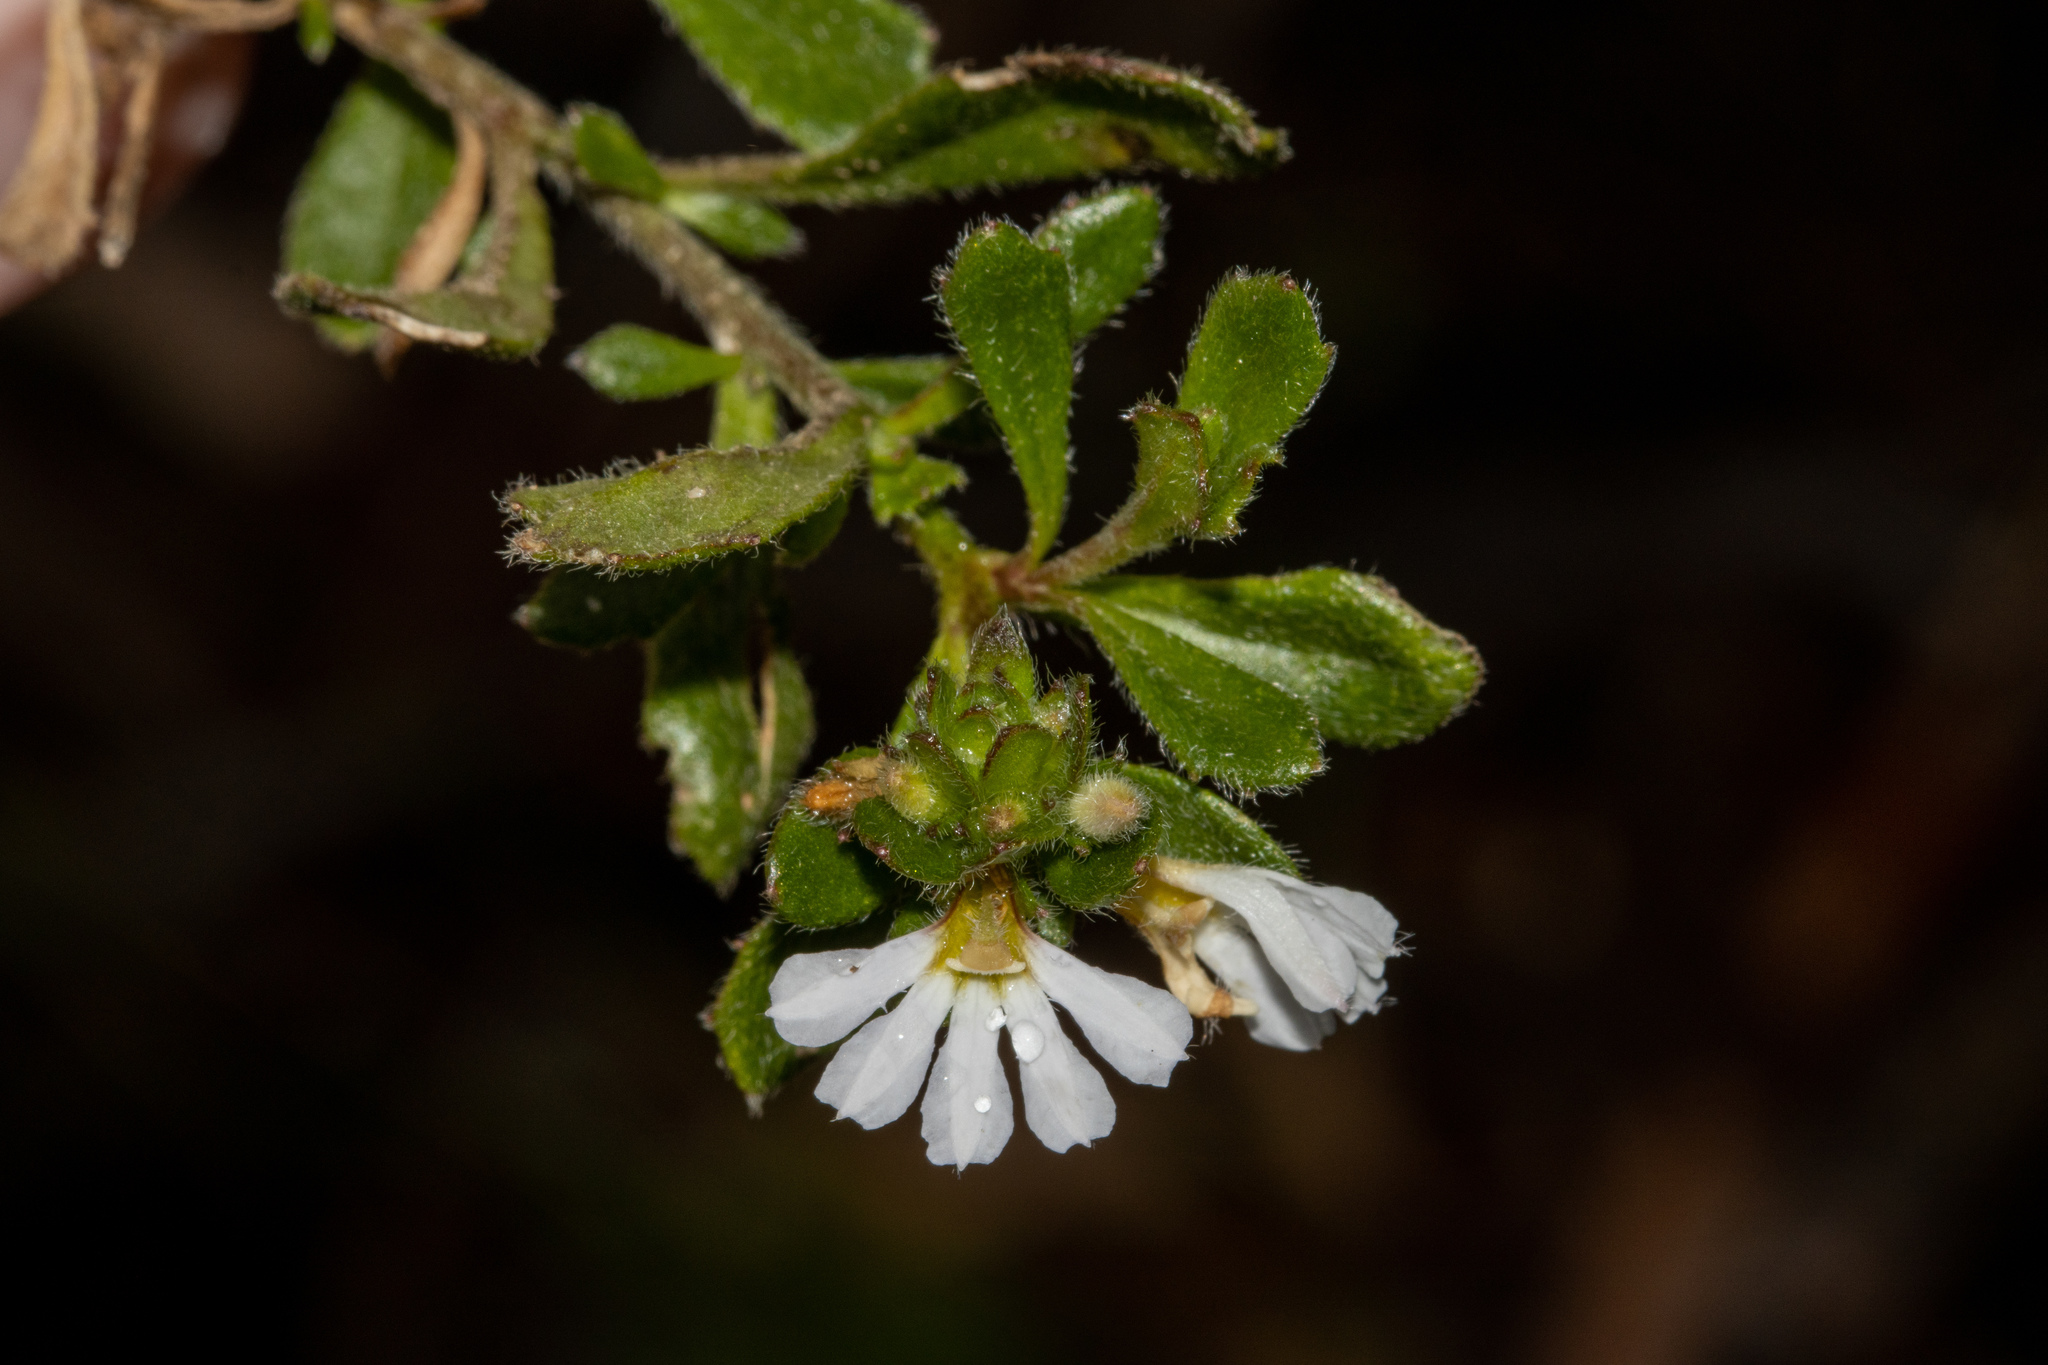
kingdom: Plantae
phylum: Tracheophyta
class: Magnoliopsida
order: Asterales
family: Goodeniaceae
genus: Scaevola
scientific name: Scaevola albida
